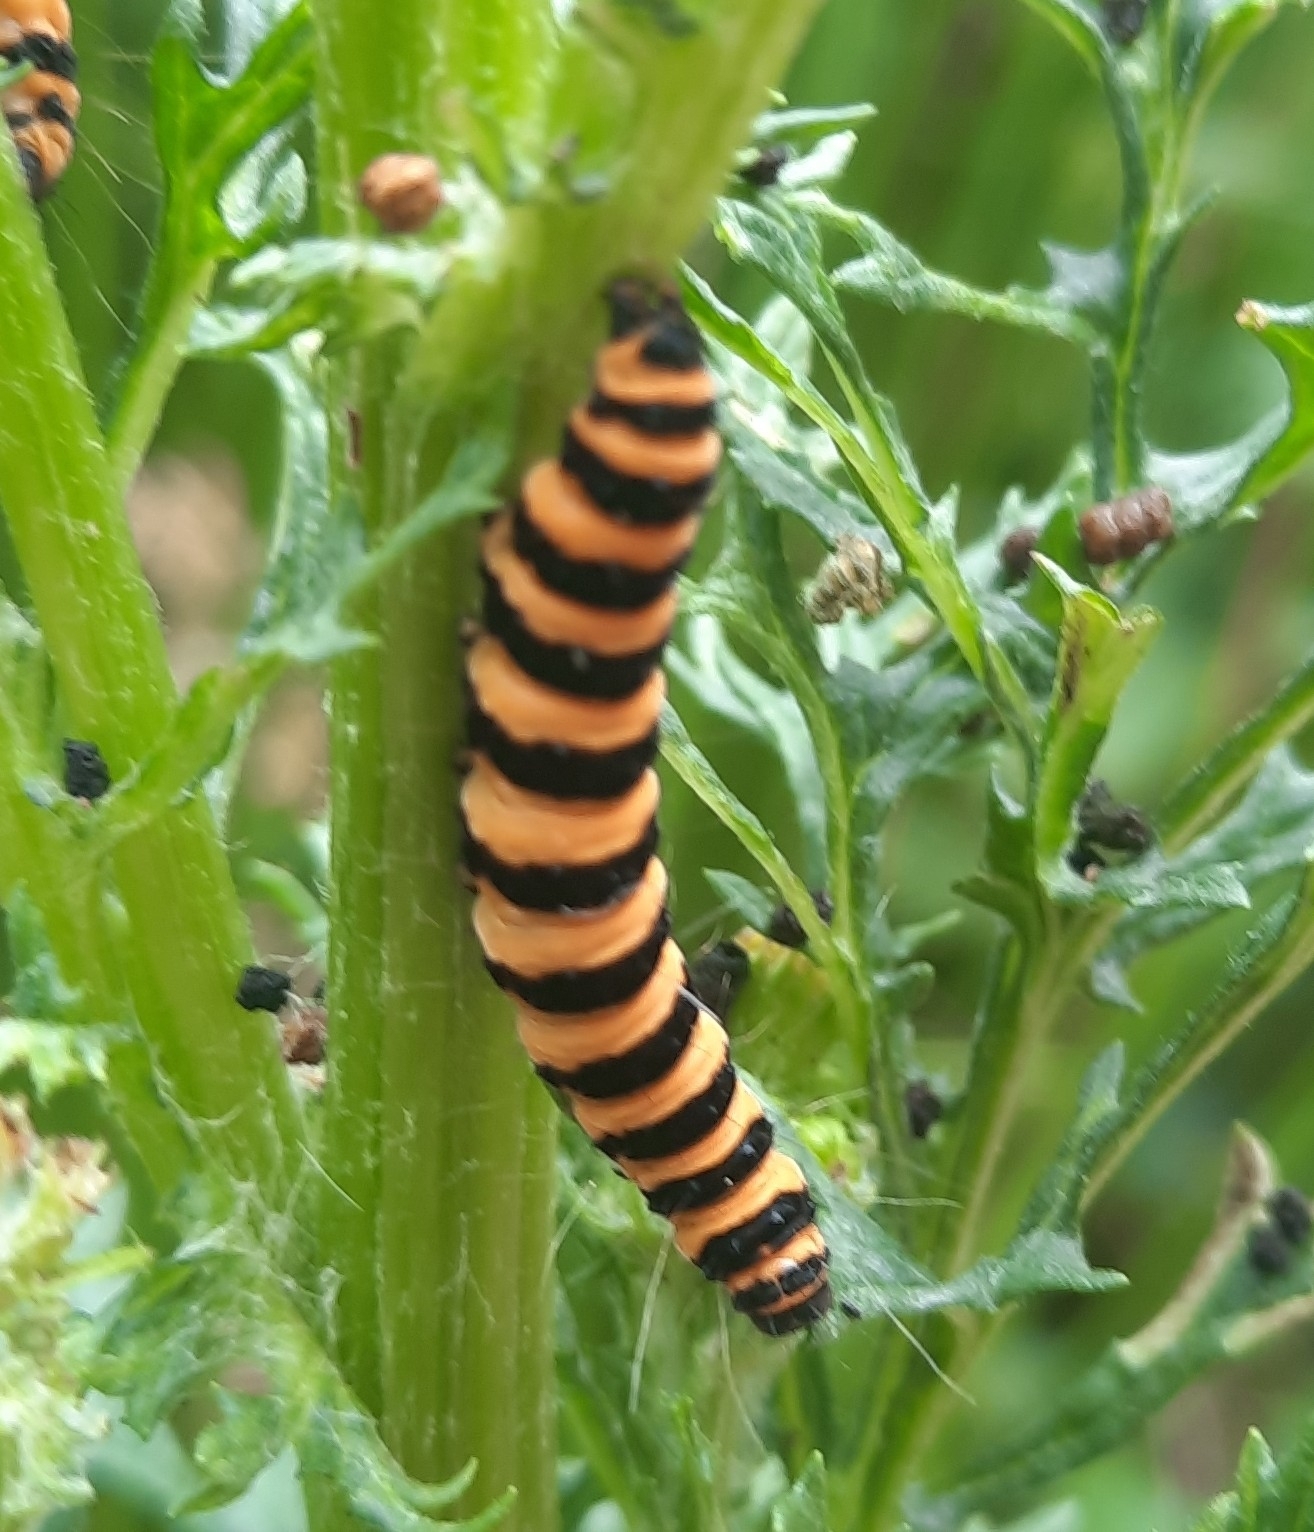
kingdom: Animalia
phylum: Arthropoda
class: Insecta
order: Lepidoptera
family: Erebidae
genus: Tyria
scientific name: Tyria jacobaeae
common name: Cinnabar
